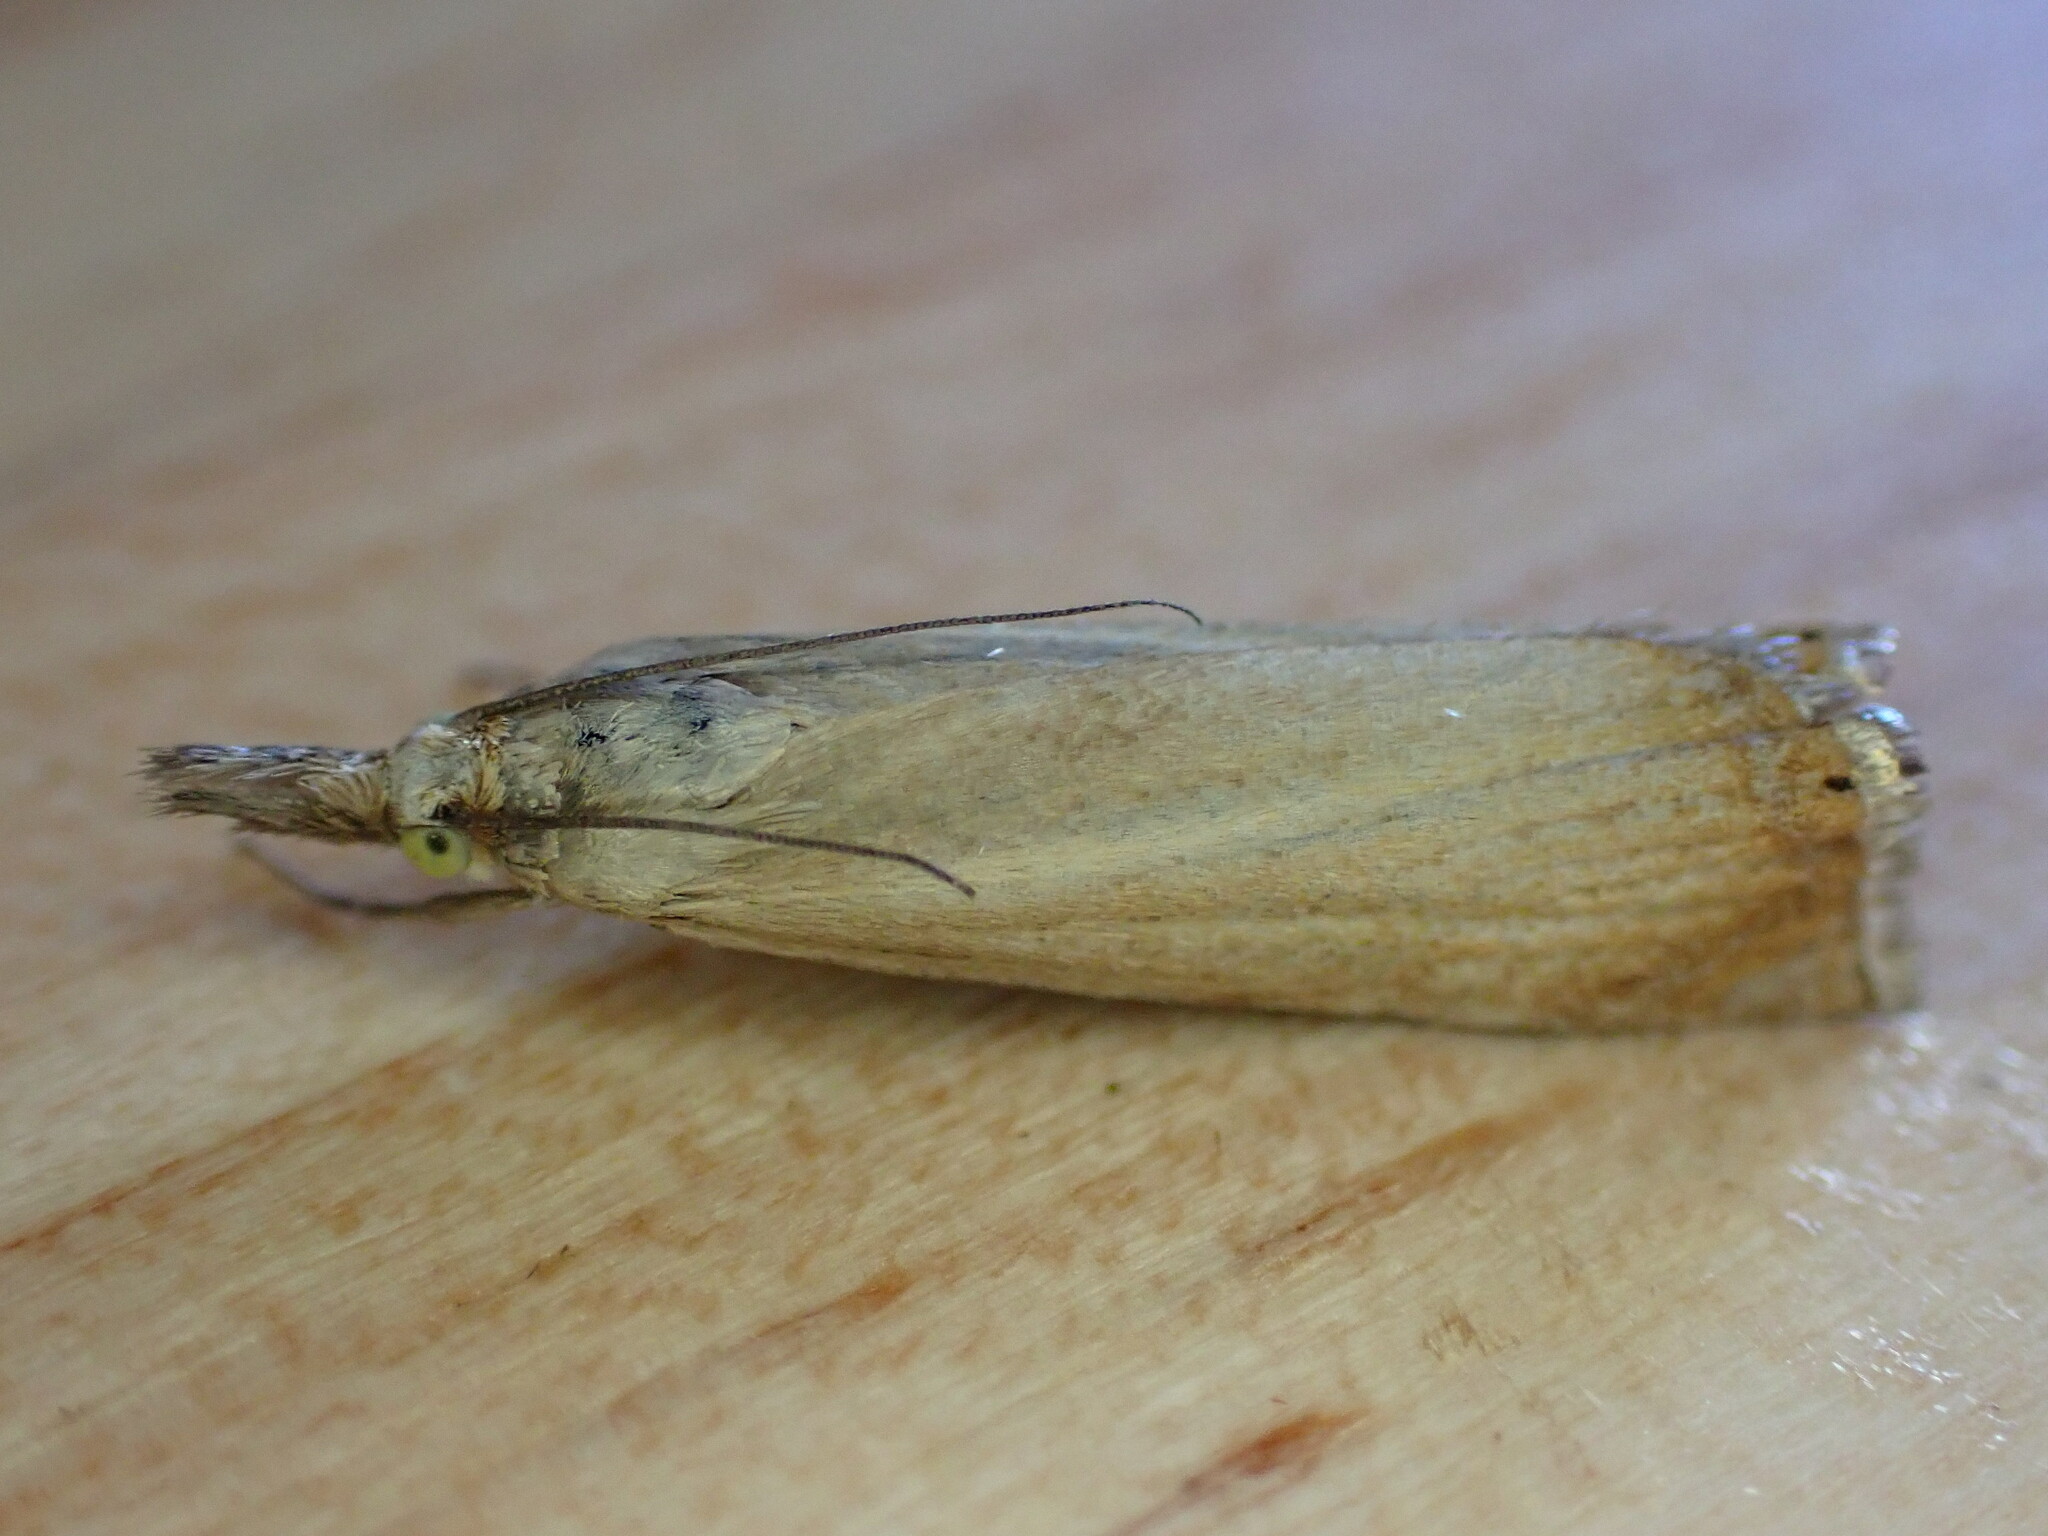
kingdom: Animalia
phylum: Arthropoda
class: Insecta
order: Lepidoptera
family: Crambidae
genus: Chrysoteuchia
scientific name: Chrysoteuchia culmella
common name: Garden grass-veneer
